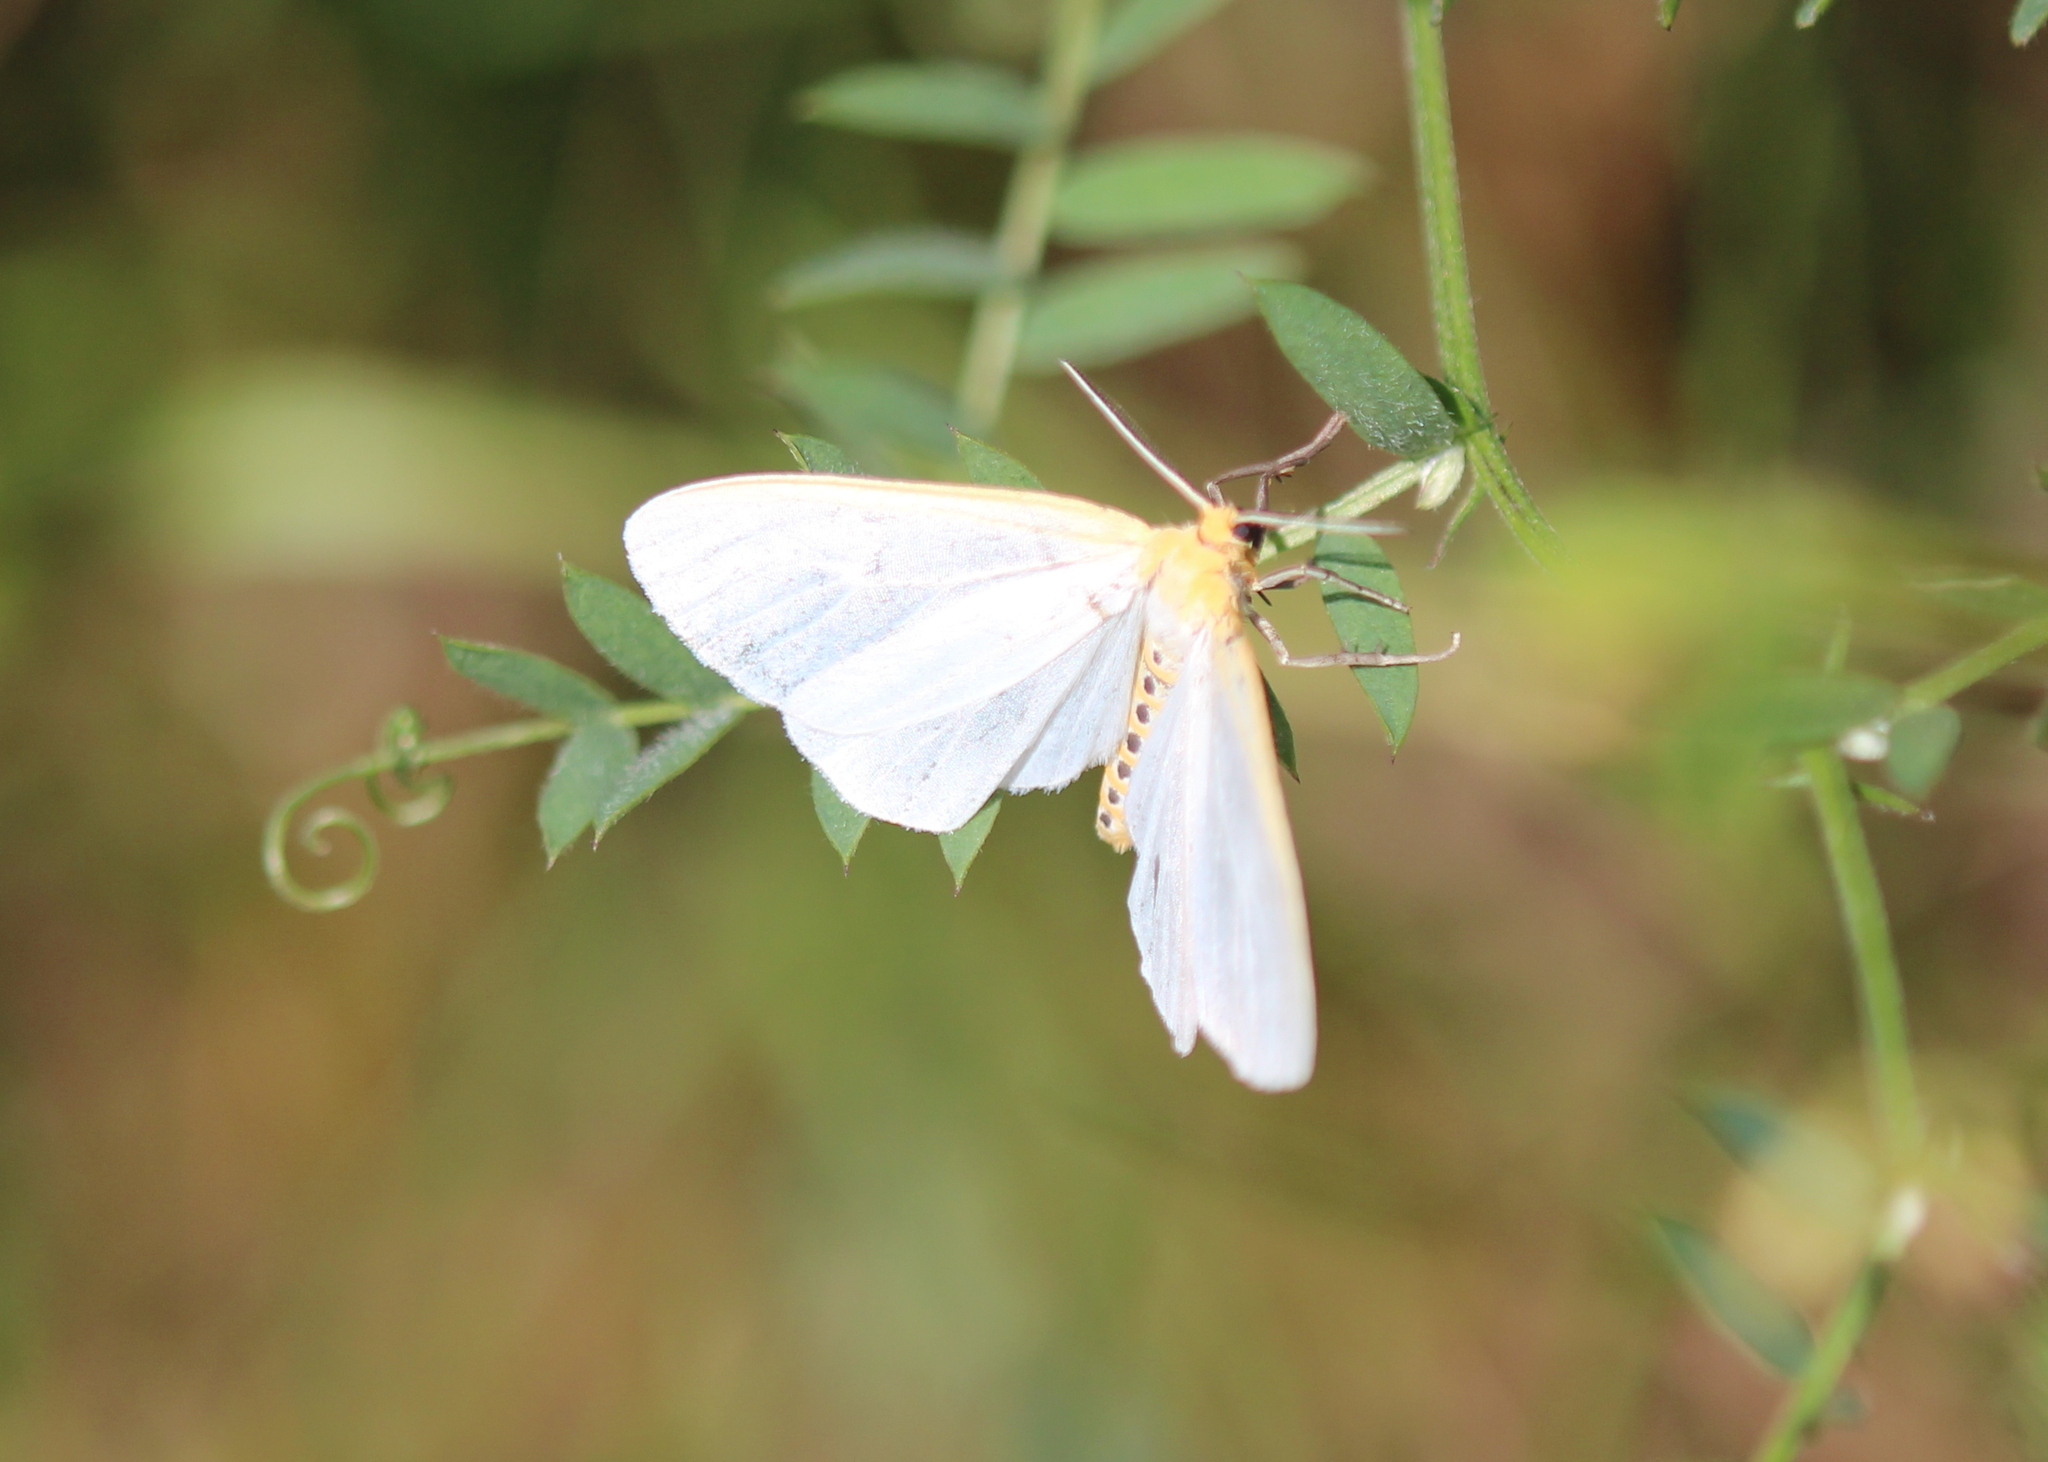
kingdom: Animalia
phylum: Arthropoda
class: Insecta
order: Lepidoptera
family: Erebidae
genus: Cycnia
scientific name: Cycnia tenera
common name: Delicate cycnia moth
